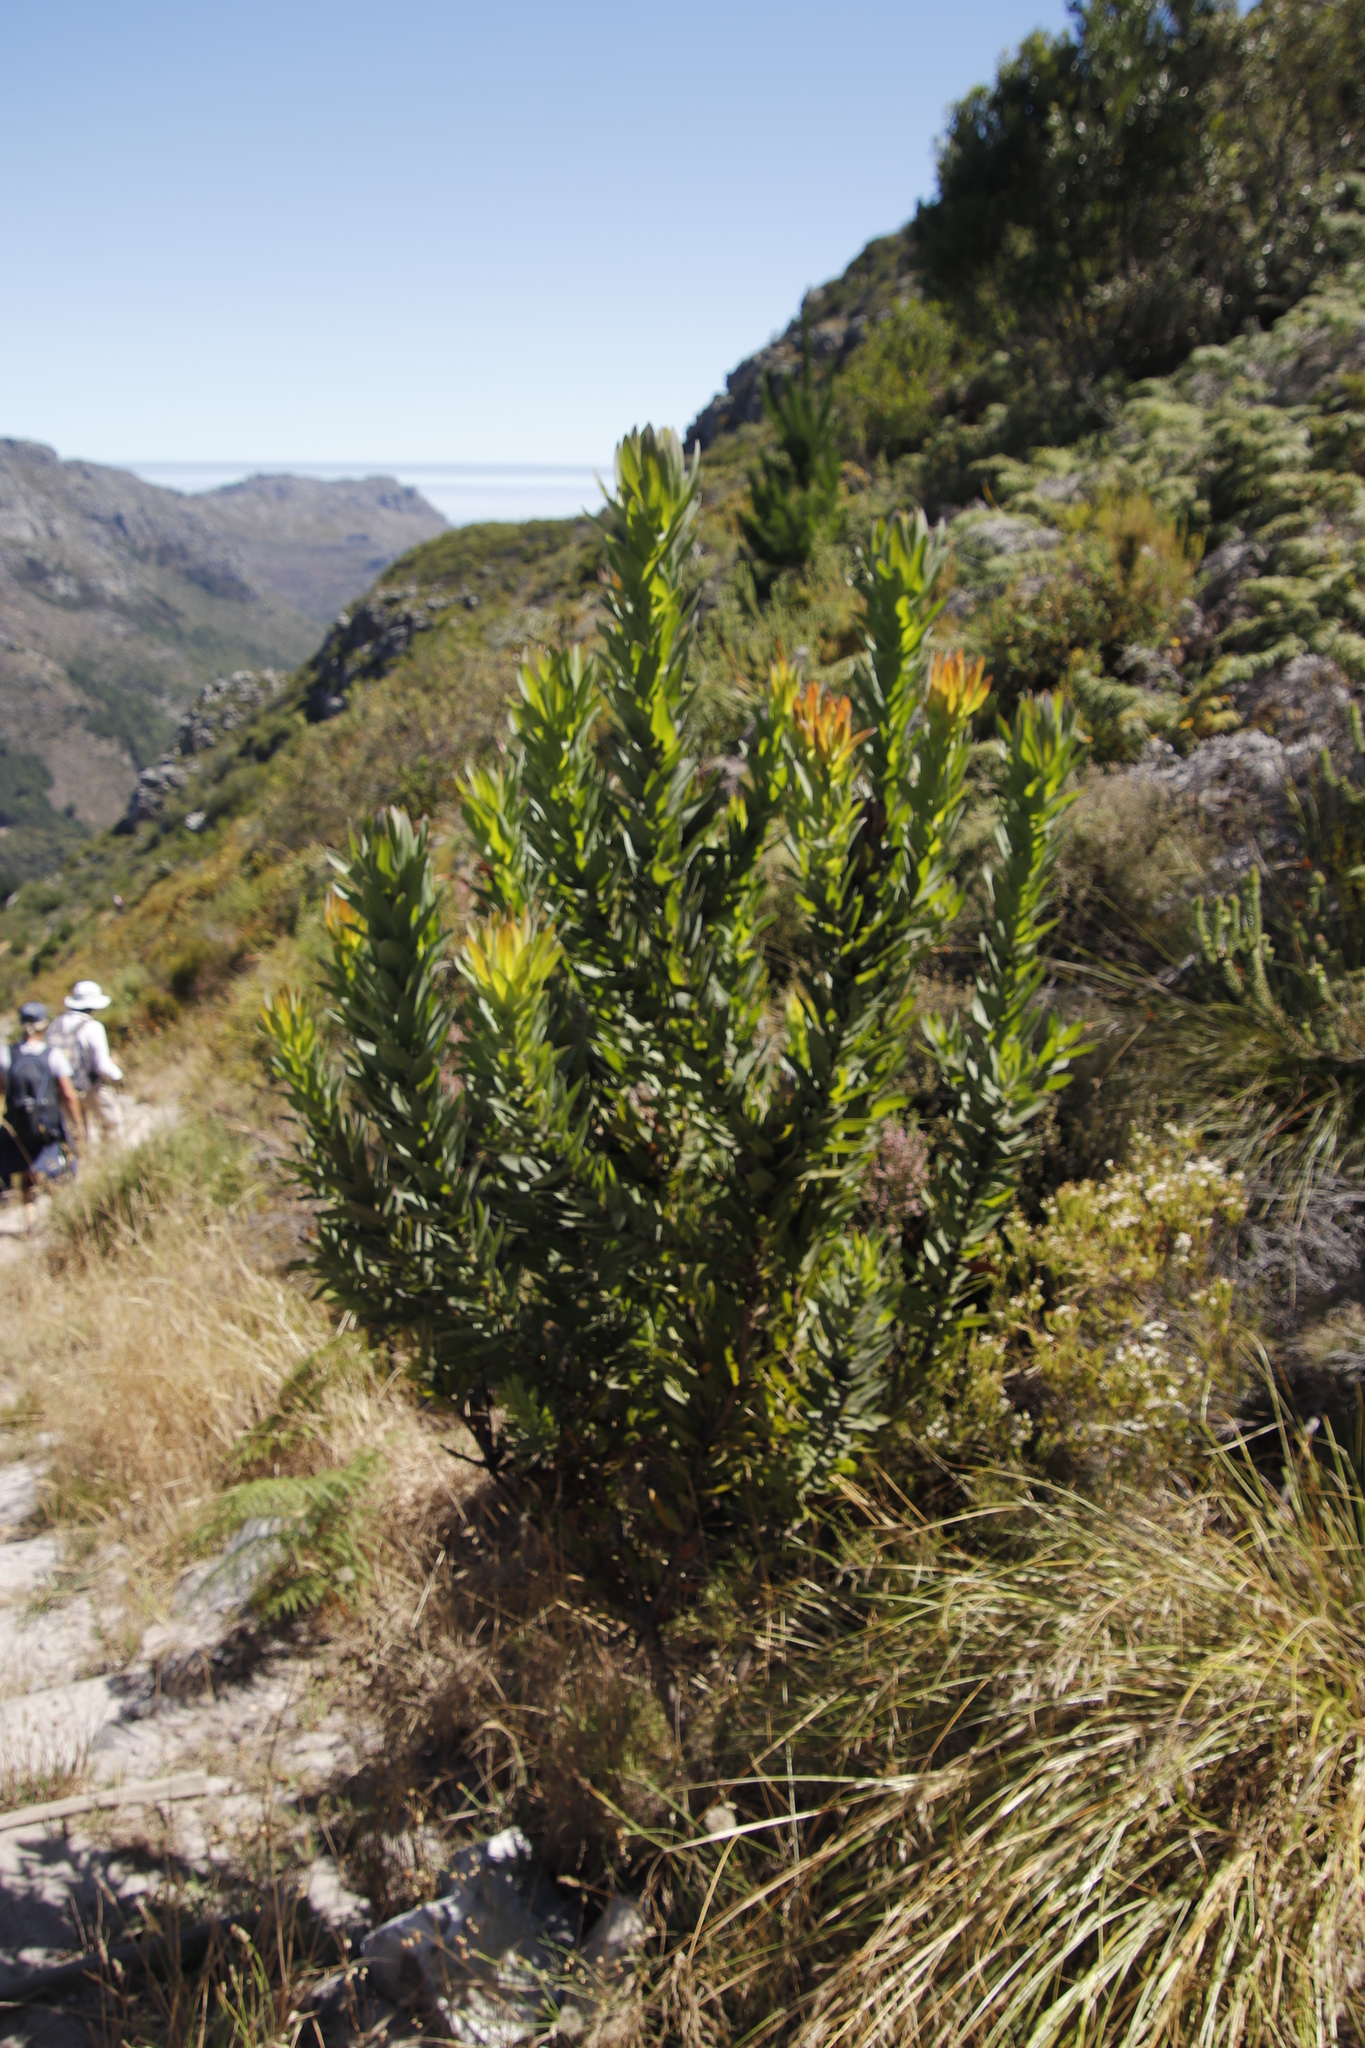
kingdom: Plantae
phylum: Tracheophyta
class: Magnoliopsida
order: Proteales
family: Proteaceae
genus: Protea
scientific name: Protea coronata
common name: Green sugarbush
